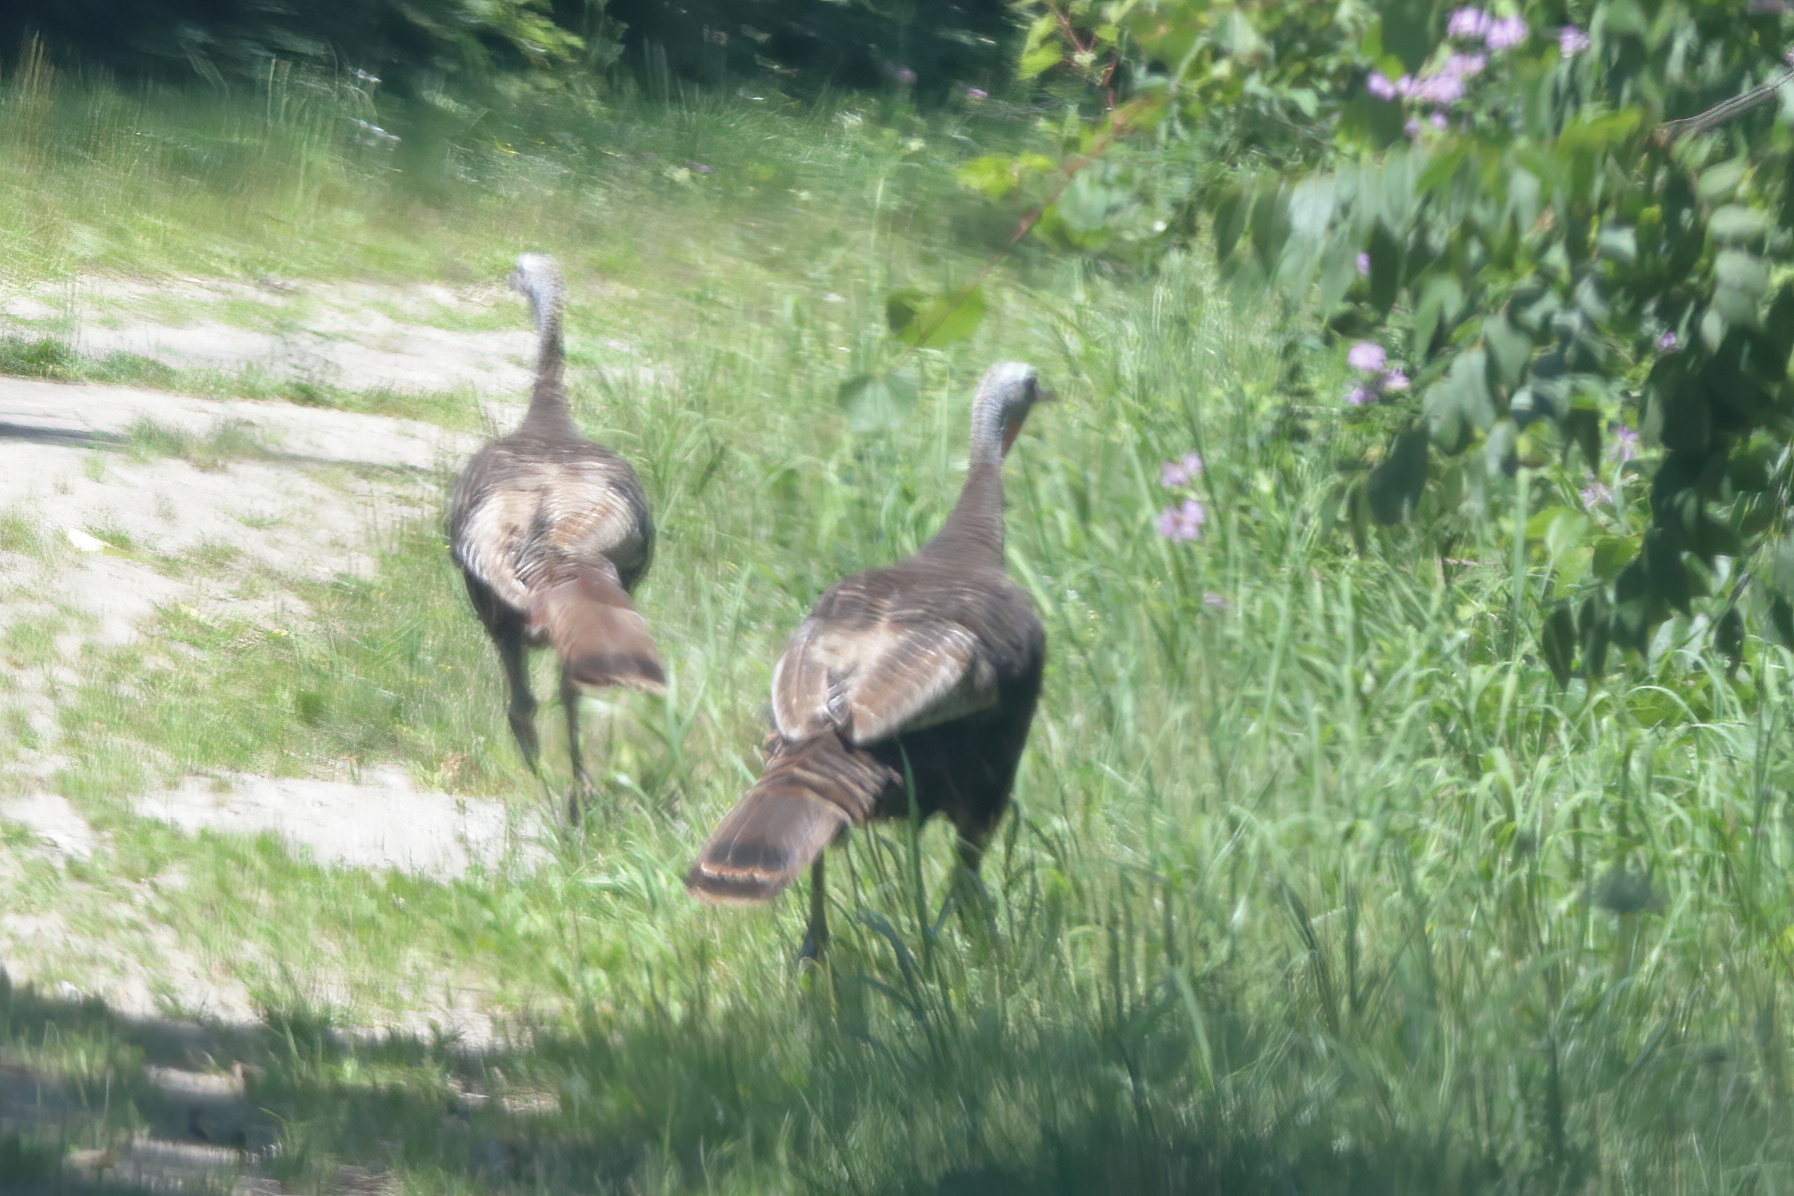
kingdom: Animalia
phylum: Chordata
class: Aves
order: Galliformes
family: Phasianidae
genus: Meleagris
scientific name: Meleagris gallopavo
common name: Wild turkey
